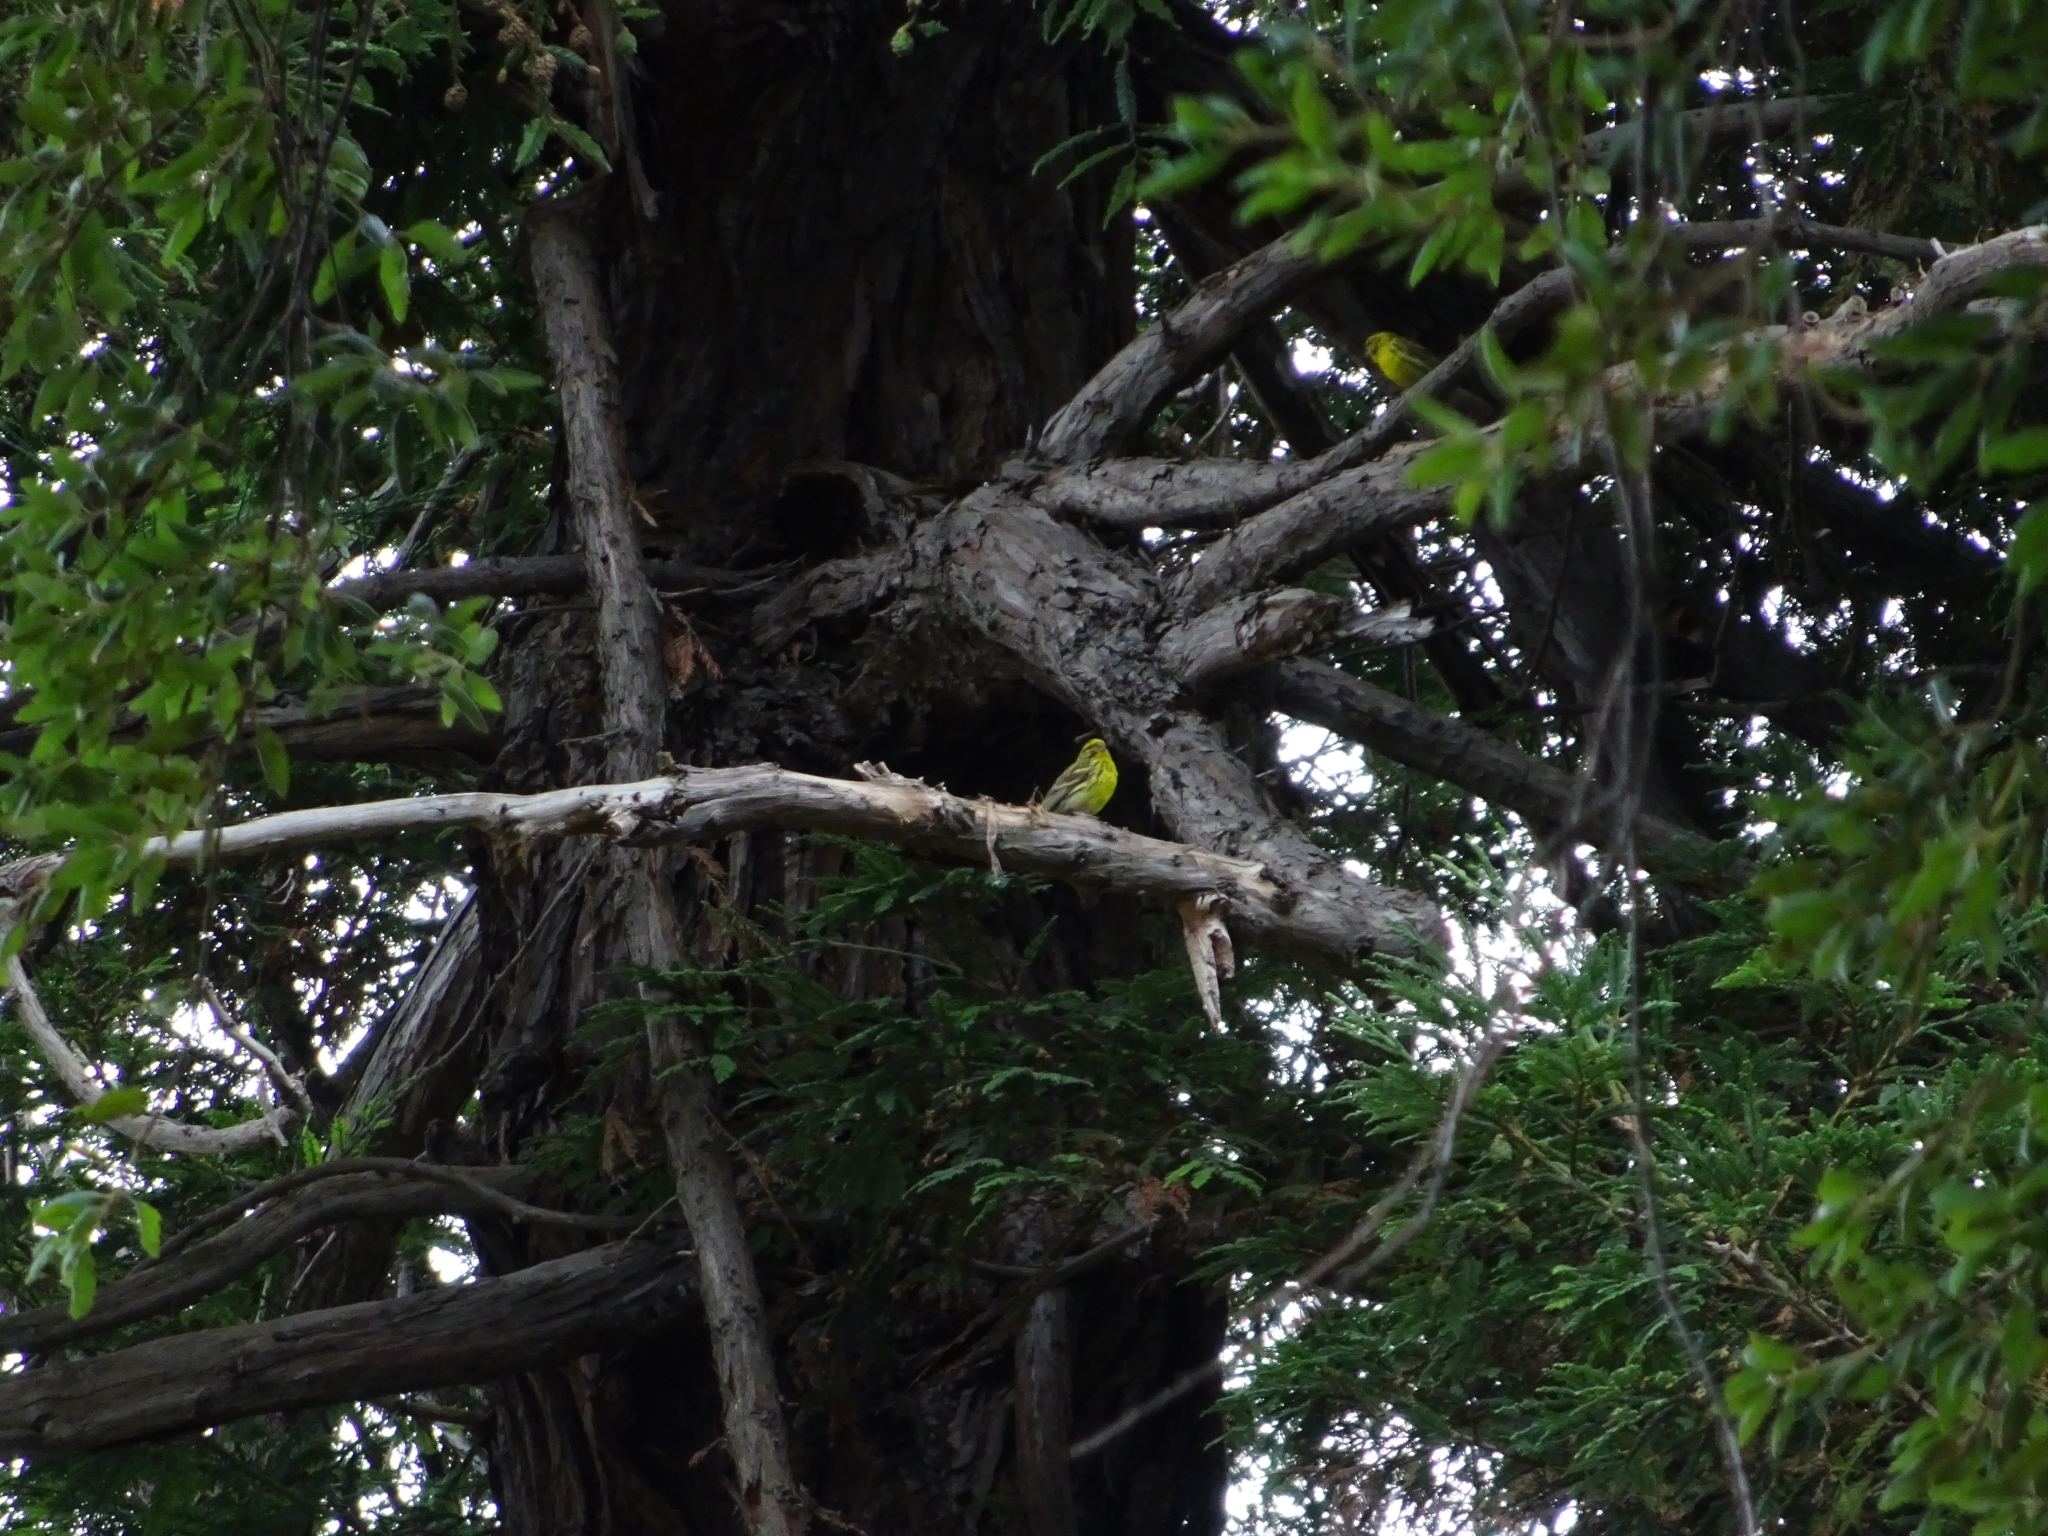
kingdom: Animalia
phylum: Chordata
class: Aves
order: Passeriformes
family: Fringillidae
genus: Serinus
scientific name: Serinus serinus
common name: European serin
